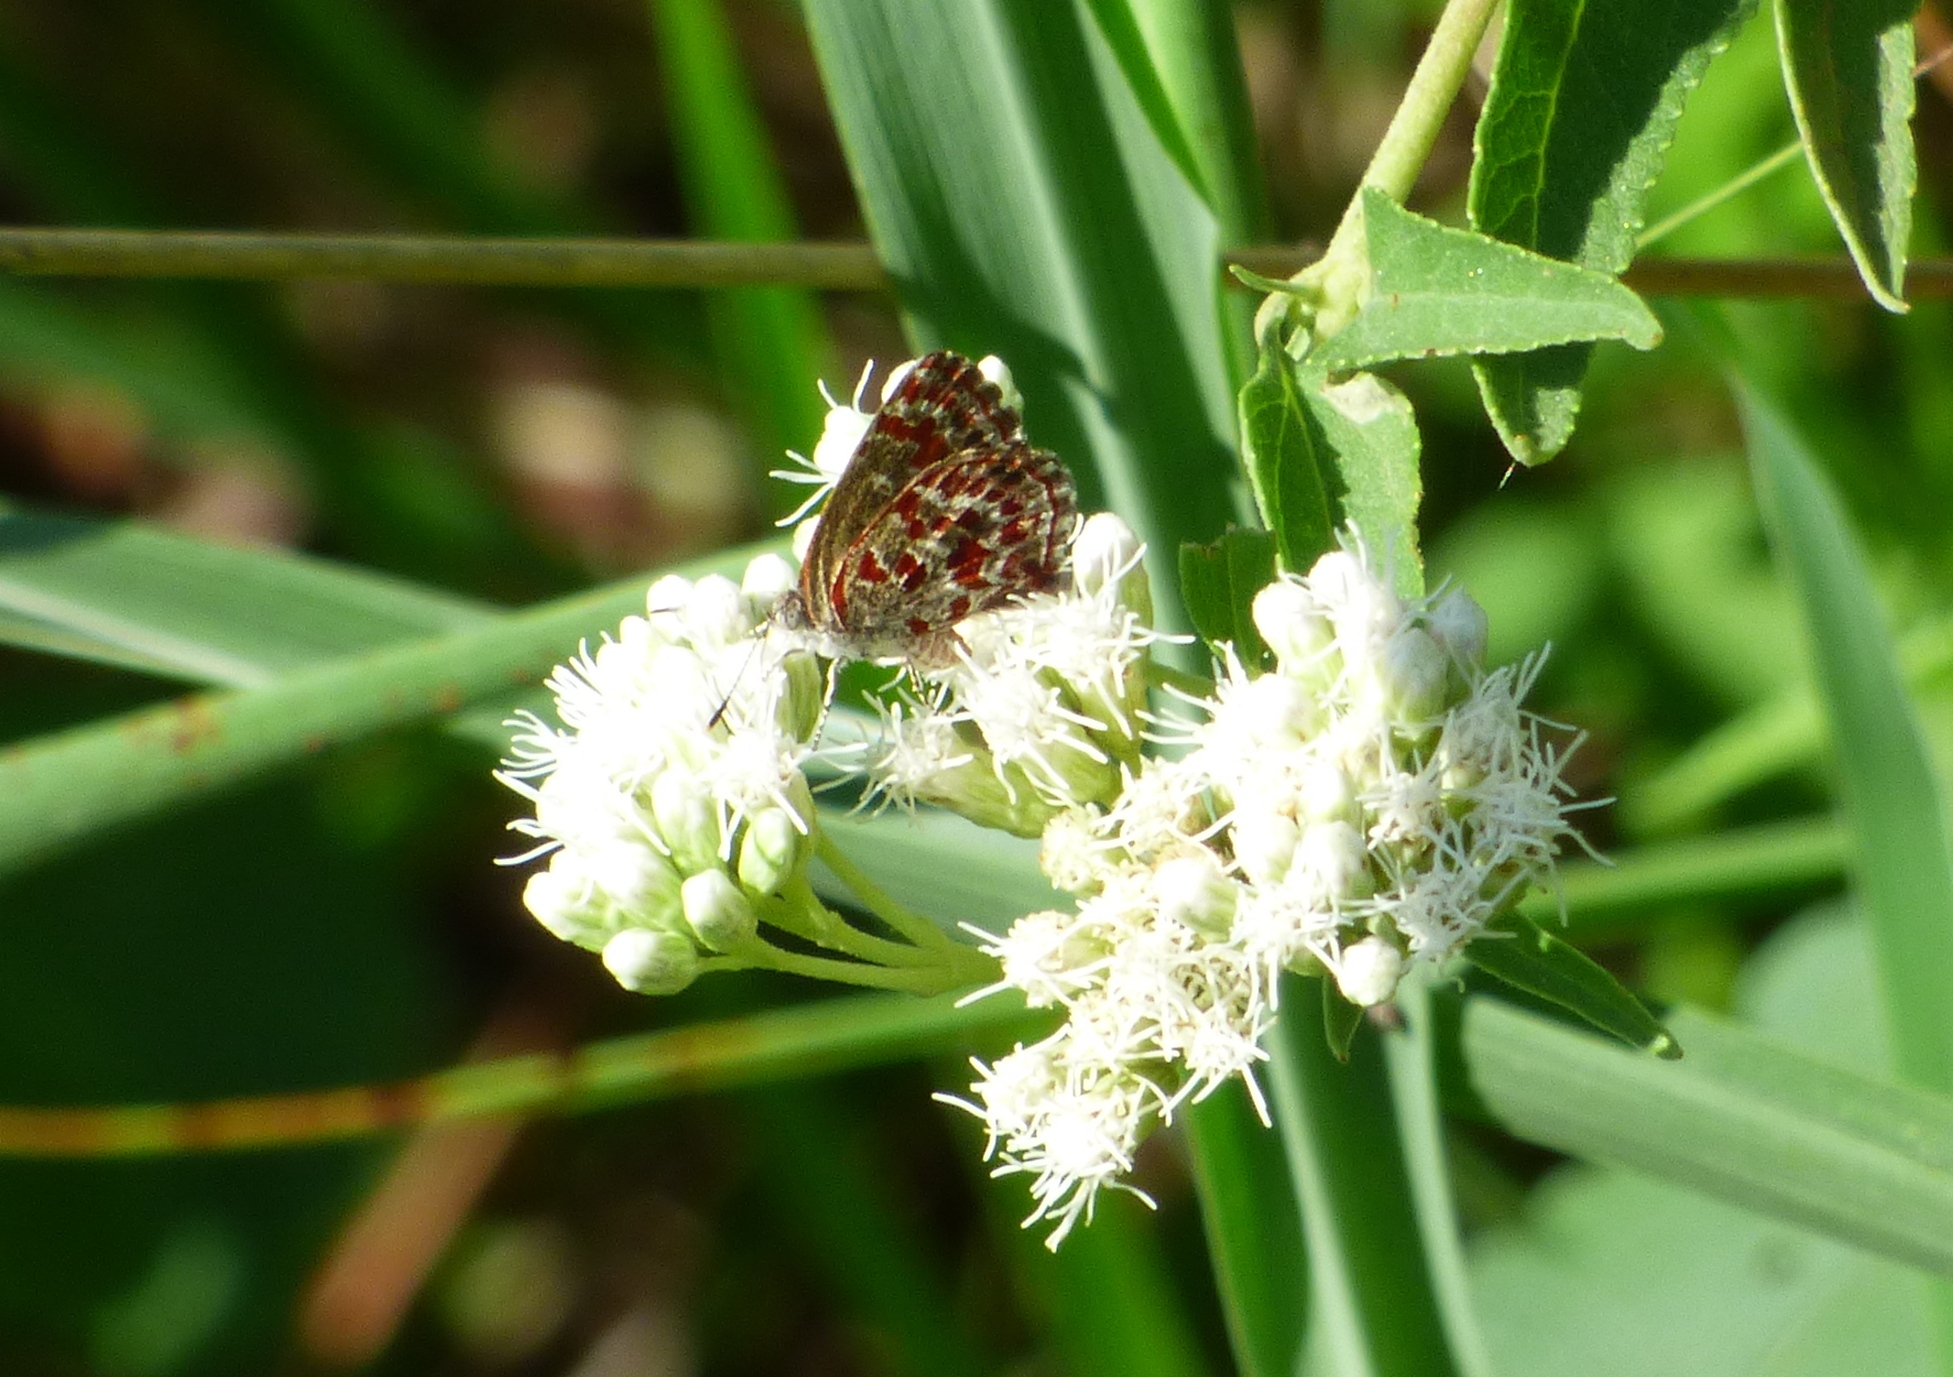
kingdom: Animalia
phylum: Arthropoda
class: Insecta
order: Lepidoptera
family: Lycaenidae
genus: Ministrymon
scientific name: Ministrymon
